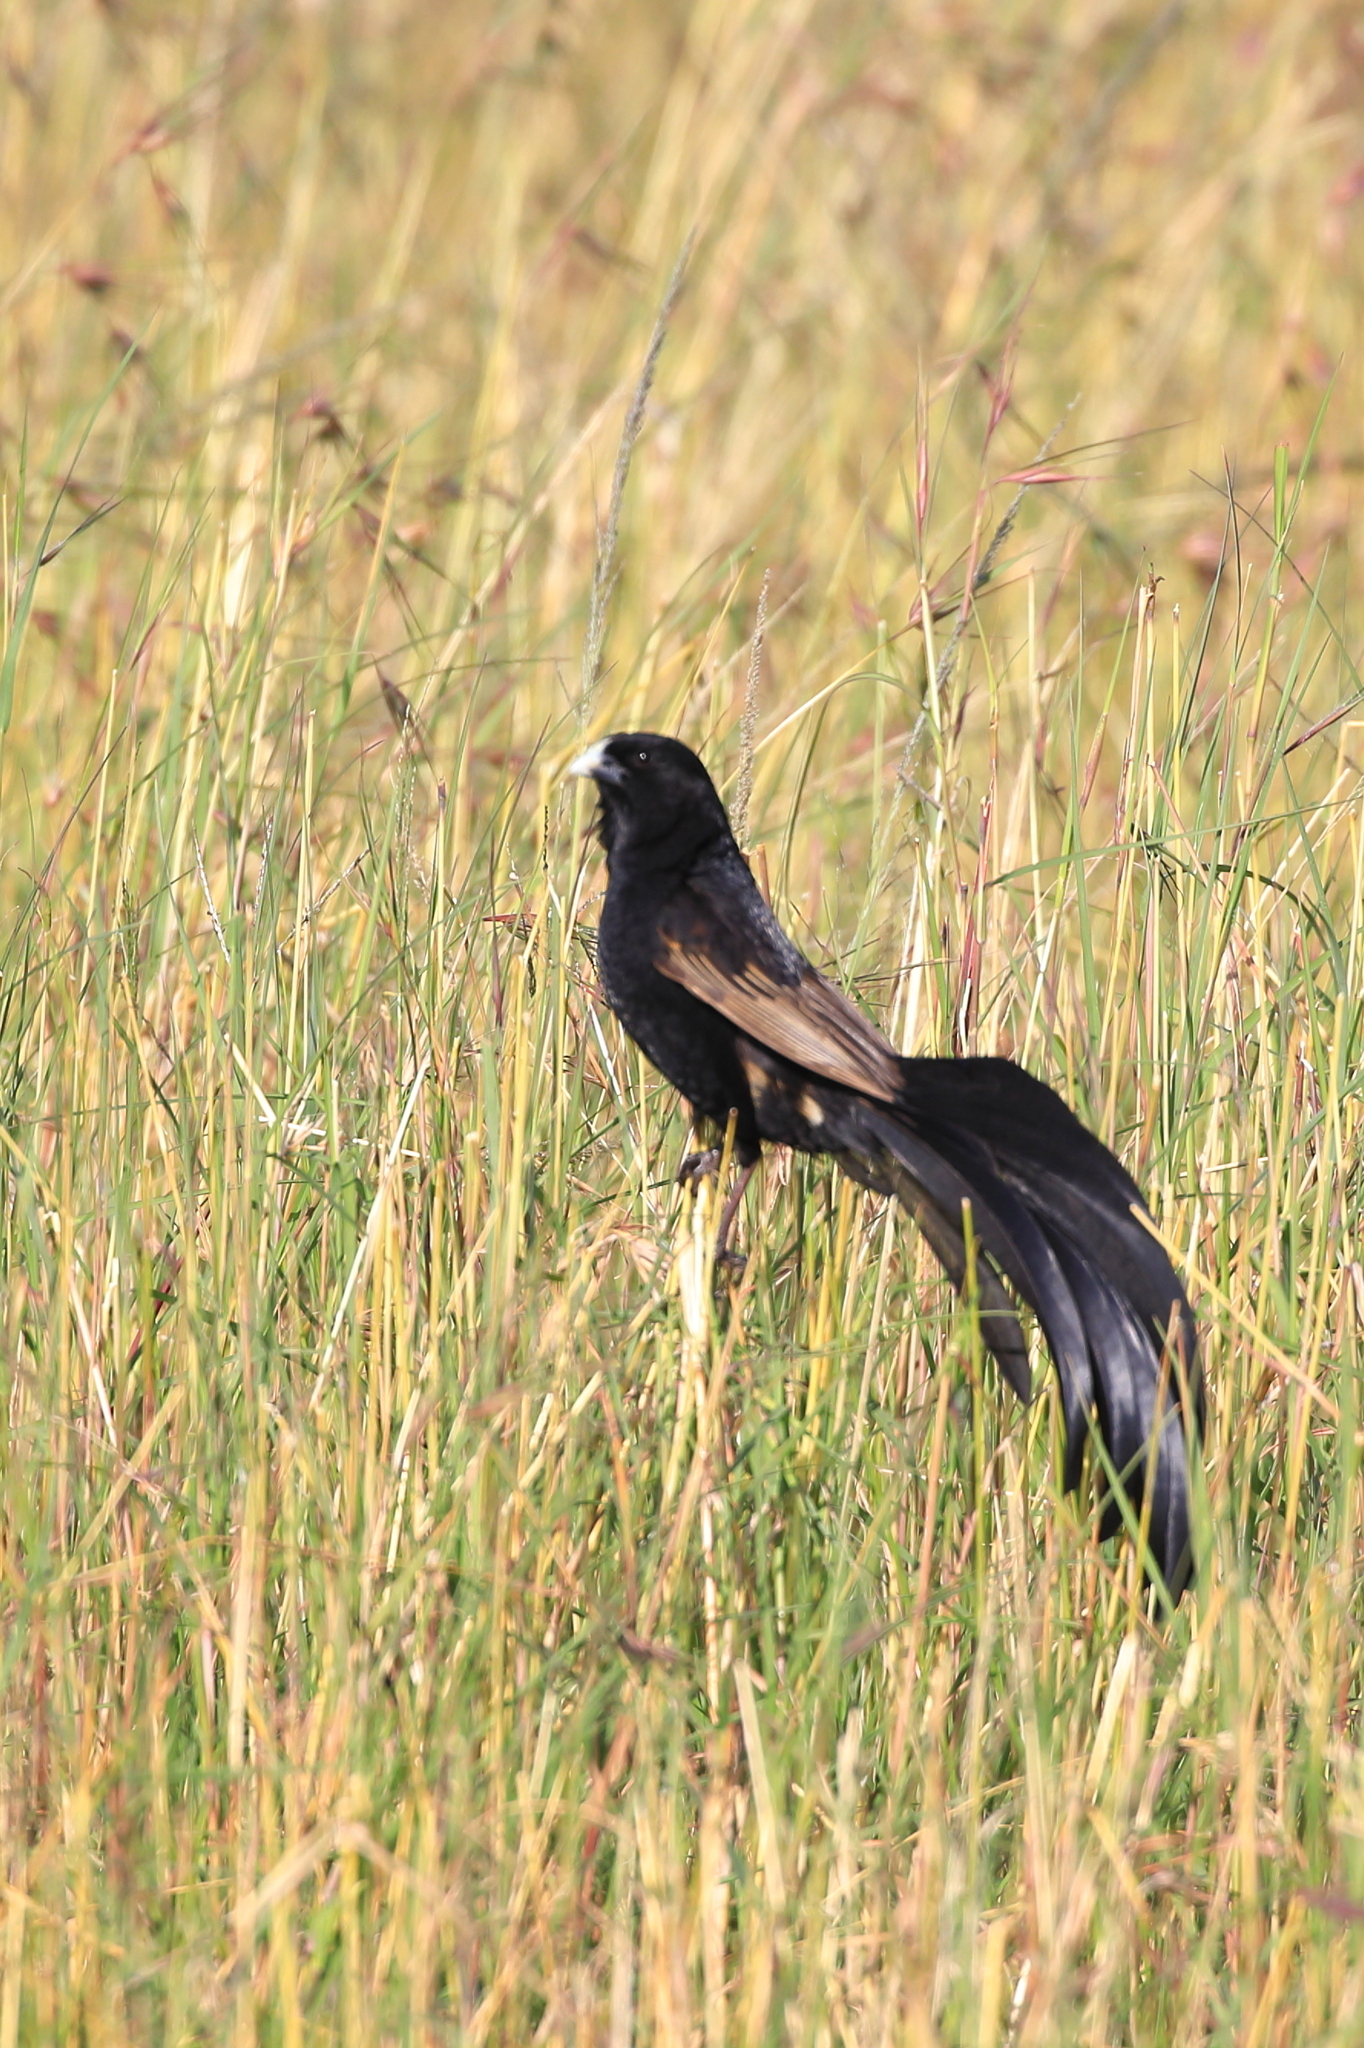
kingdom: Animalia
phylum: Chordata
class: Aves
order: Passeriformes
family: Ploceidae
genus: Euplectes
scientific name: Euplectes jacksoni
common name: Jackson's widowbird
